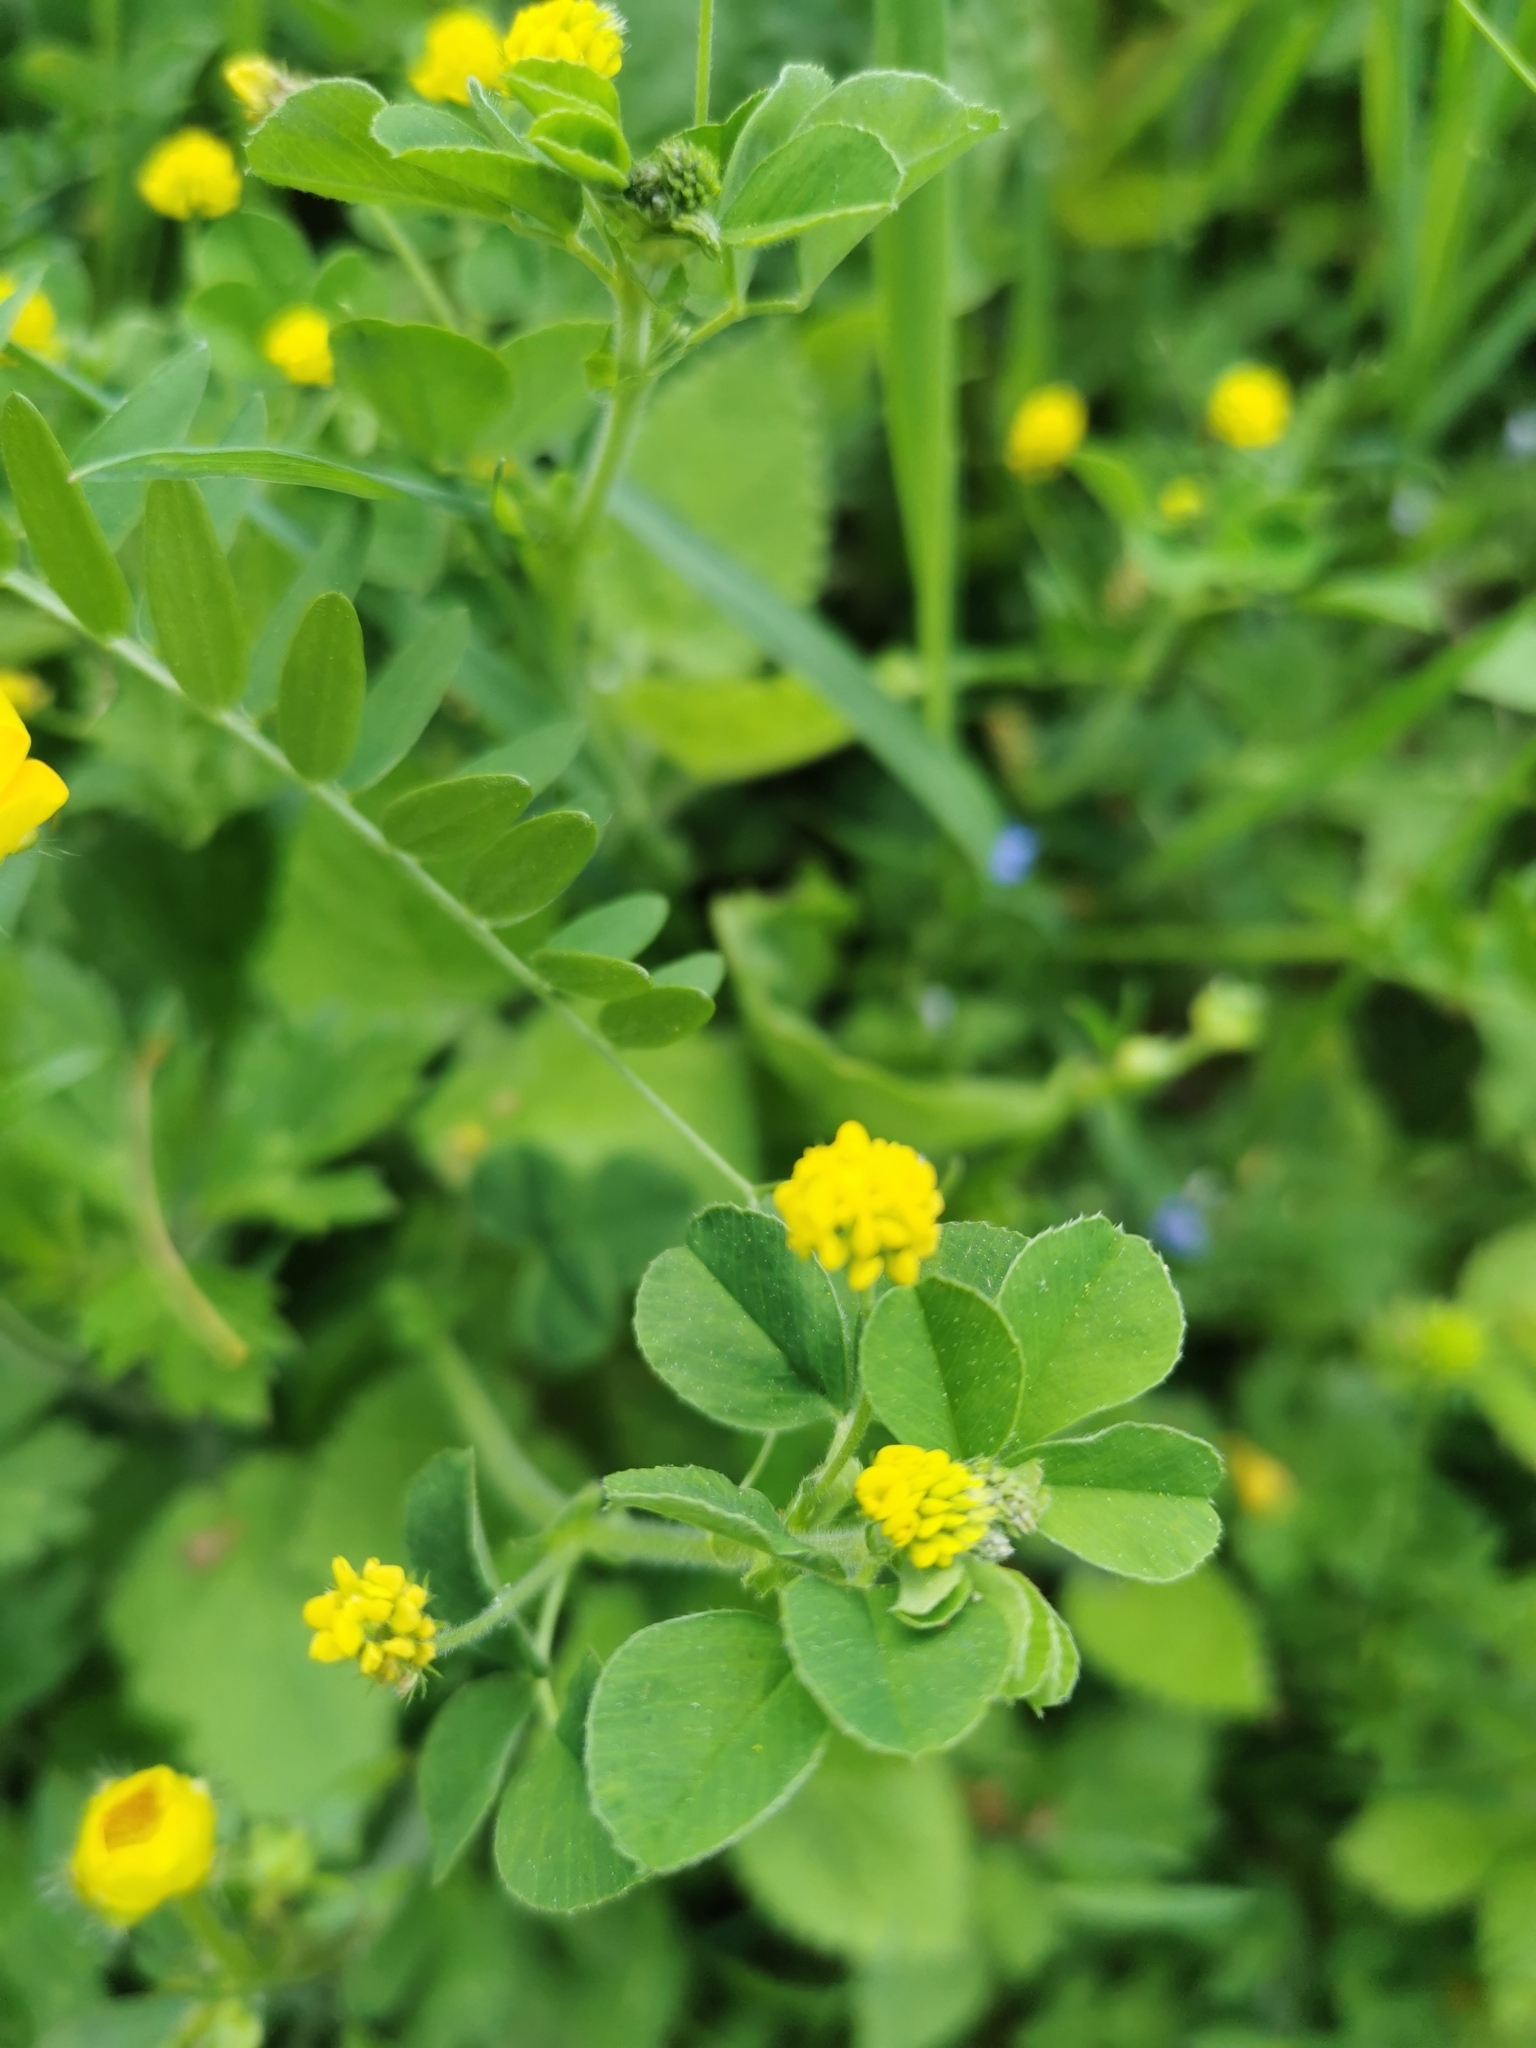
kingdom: Plantae
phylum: Tracheophyta
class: Magnoliopsida
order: Fabales
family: Fabaceae
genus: Medicago
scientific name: Medicago lupulina
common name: Black medick
